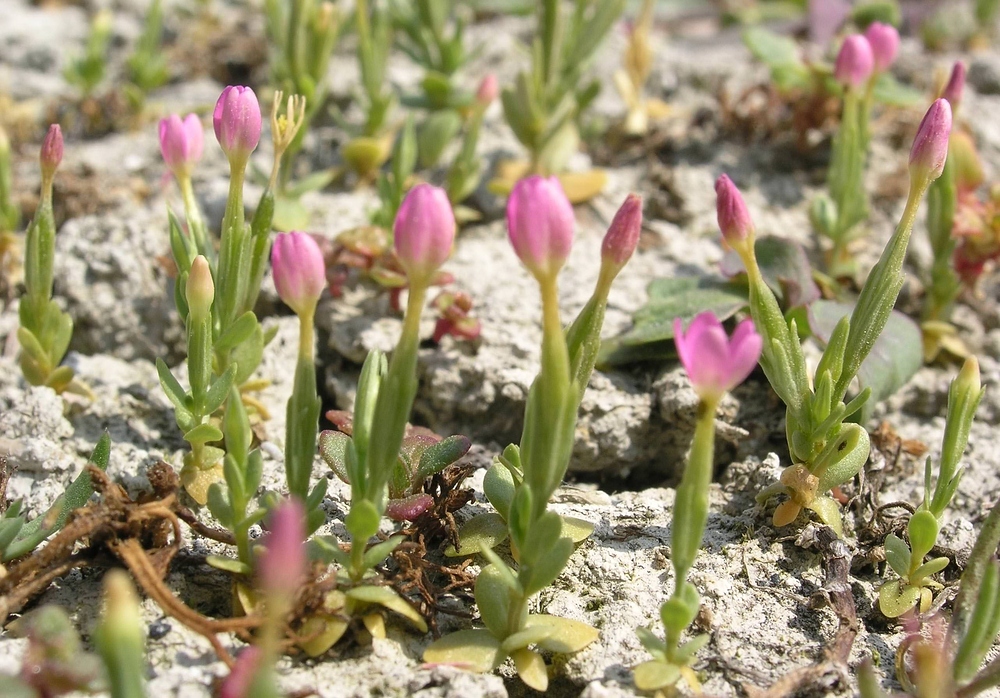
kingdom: Plantae
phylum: Tracheophyta
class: Magnoliopsida
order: Gentianales
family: Gentianaceae
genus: Centaurium
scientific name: Centaurium erythraea
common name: Common centaury
